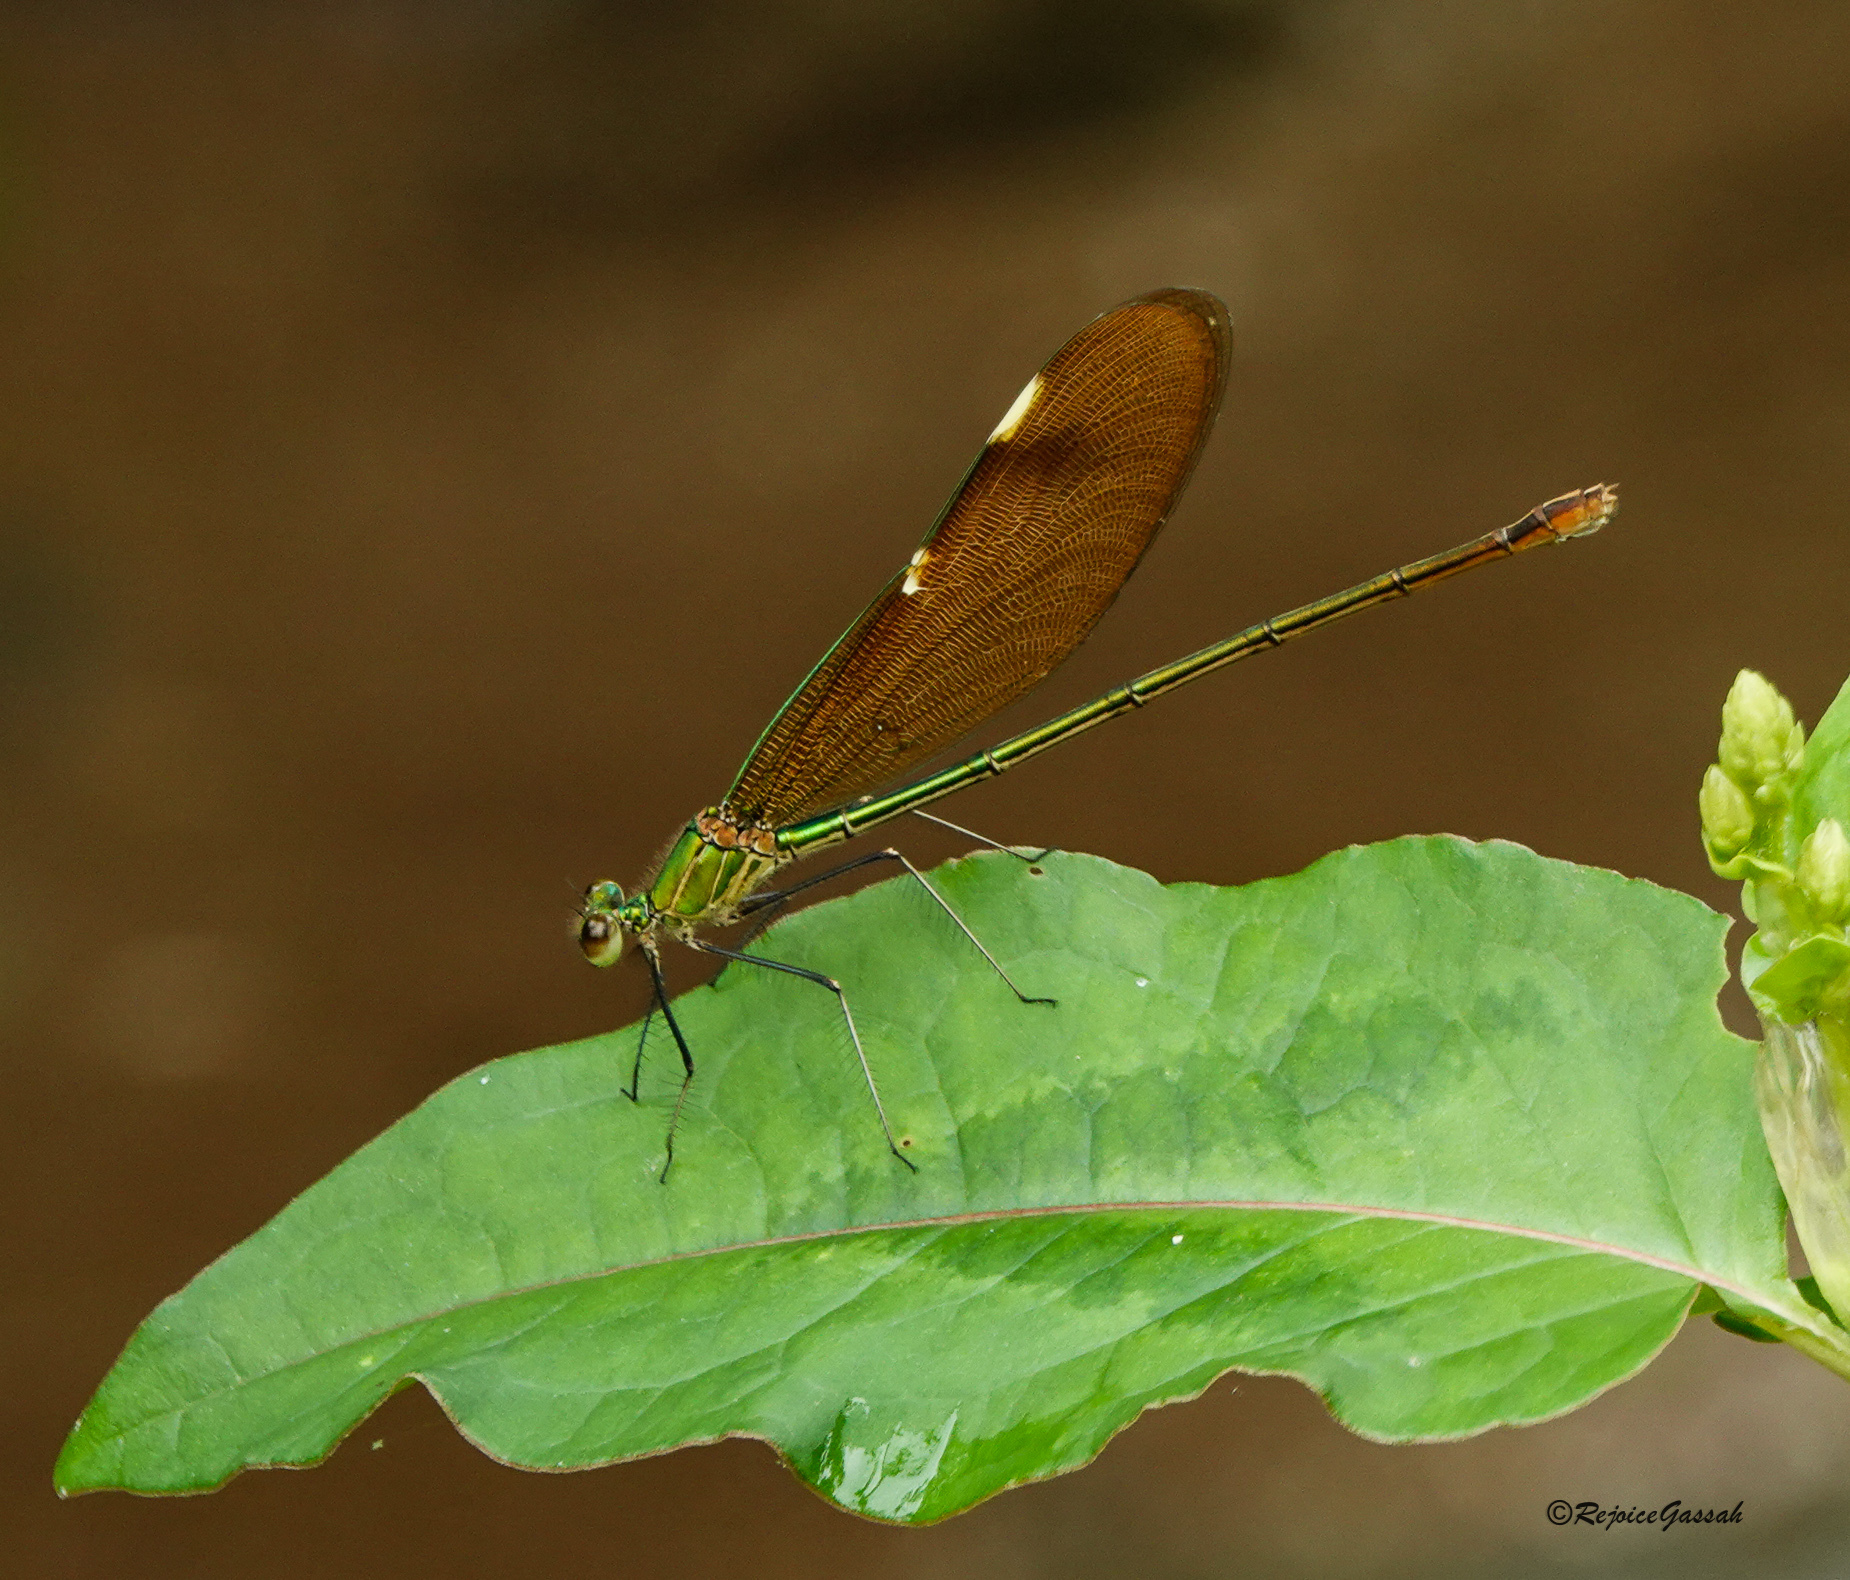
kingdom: Animalia
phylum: Arthropoda
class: Insecta
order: Odonata
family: Calopterygidae
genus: Neurobasis
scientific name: Neurobasis chinensis
